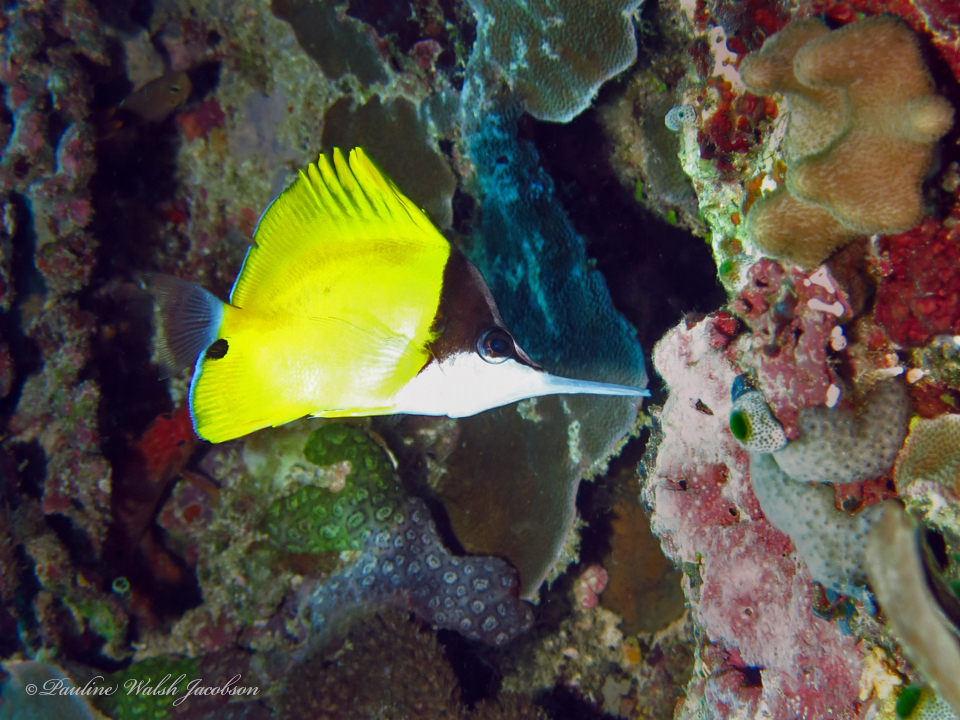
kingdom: Animalia
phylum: Chordata
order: Perciformes
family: Chaetodontidae
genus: Forcipiger
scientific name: Forcipiger longirostris
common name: Longnose butterflyfish
